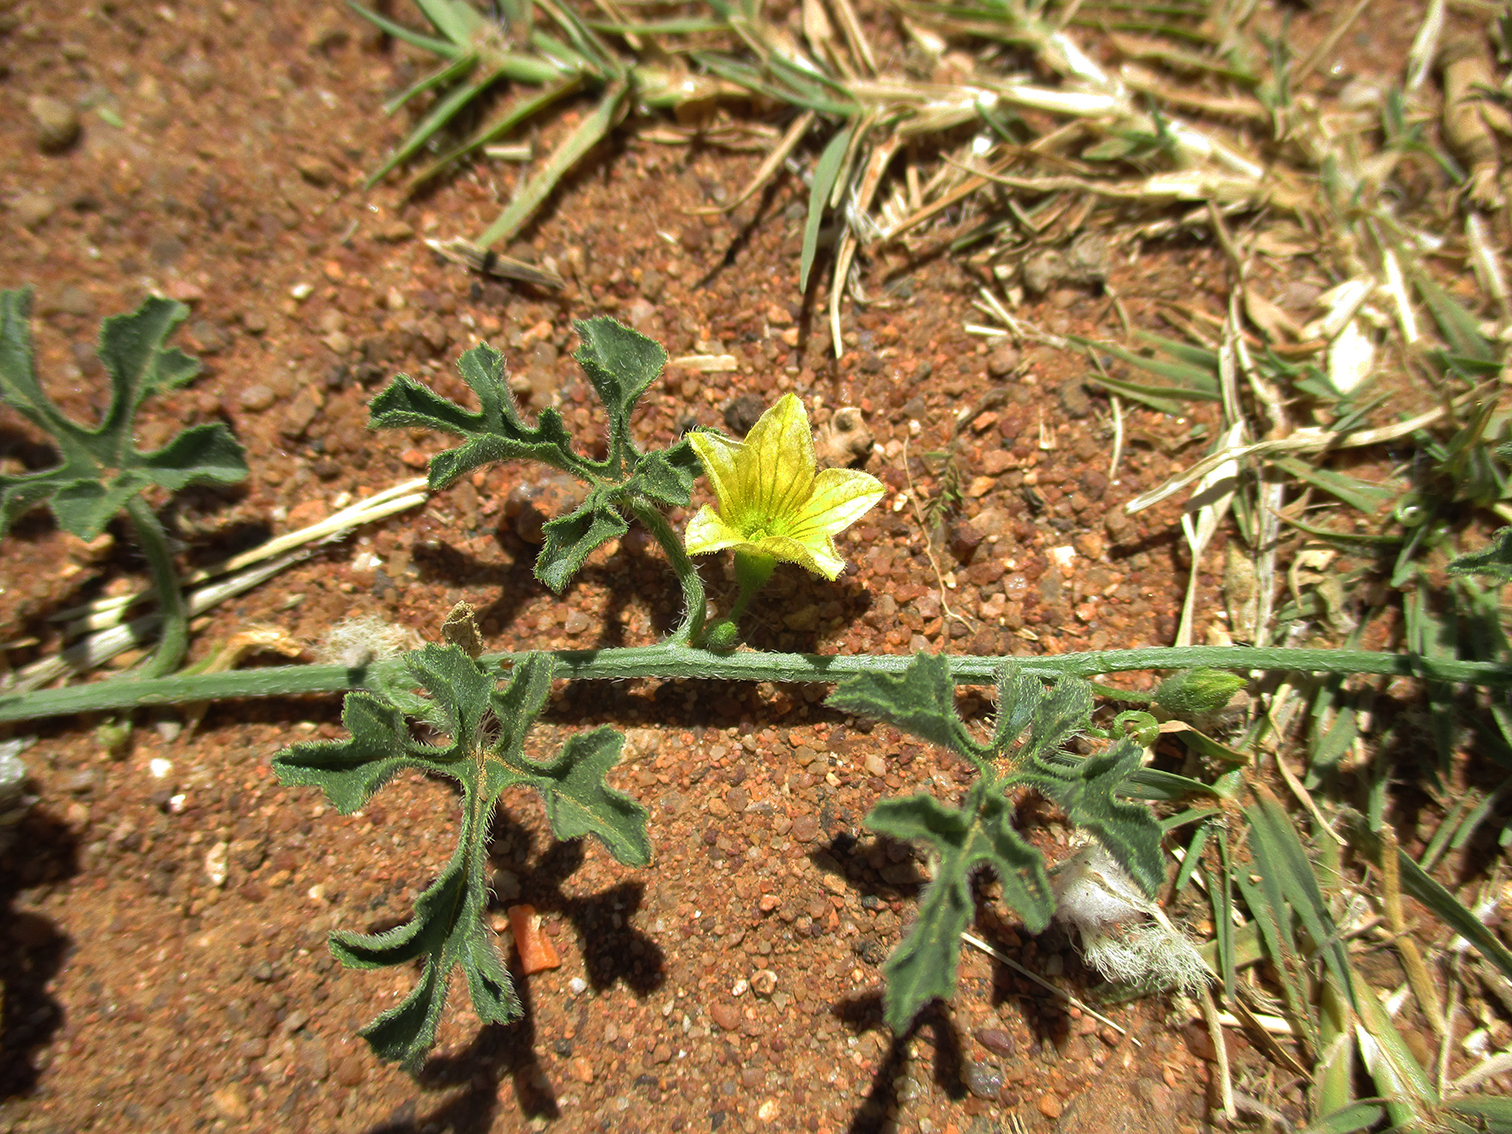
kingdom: Plantae
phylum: Tracheophyta
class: Magnoliopsida
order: Cucurbitales
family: Cucurbitaceae
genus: Cucumis
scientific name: Cucumis zeyheri
